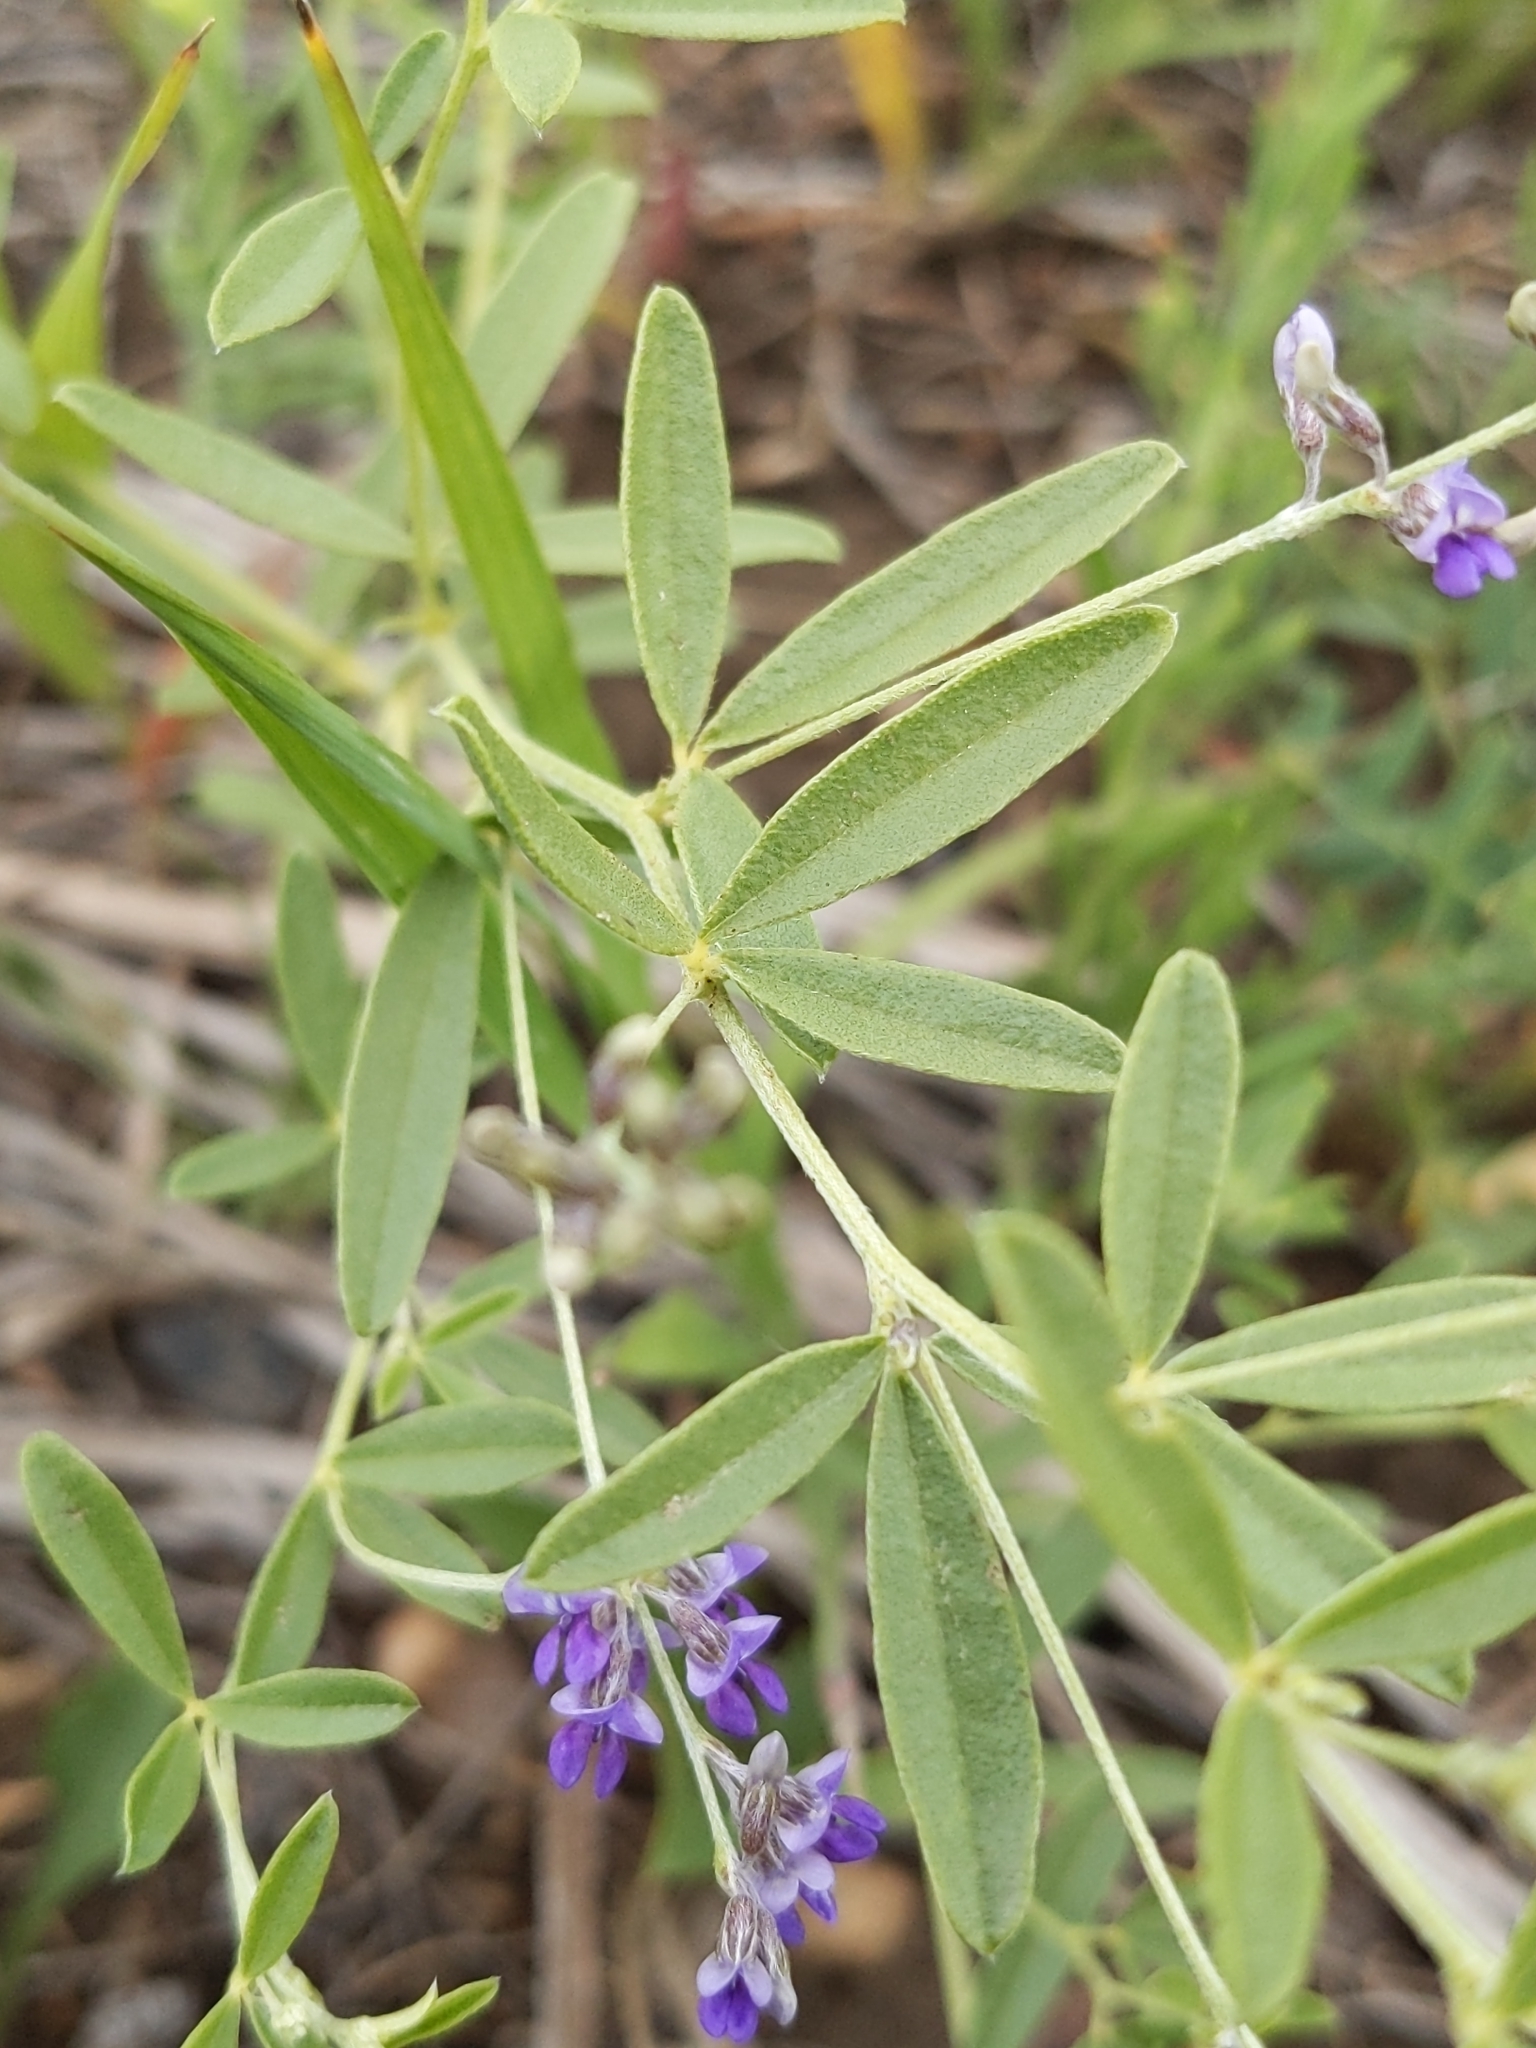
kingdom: Plantae
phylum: Tracheophyta
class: Magnoliopsida
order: Fabales
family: Fabaceae
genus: Pediomelum
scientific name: Pediomelum tenuiflorum
